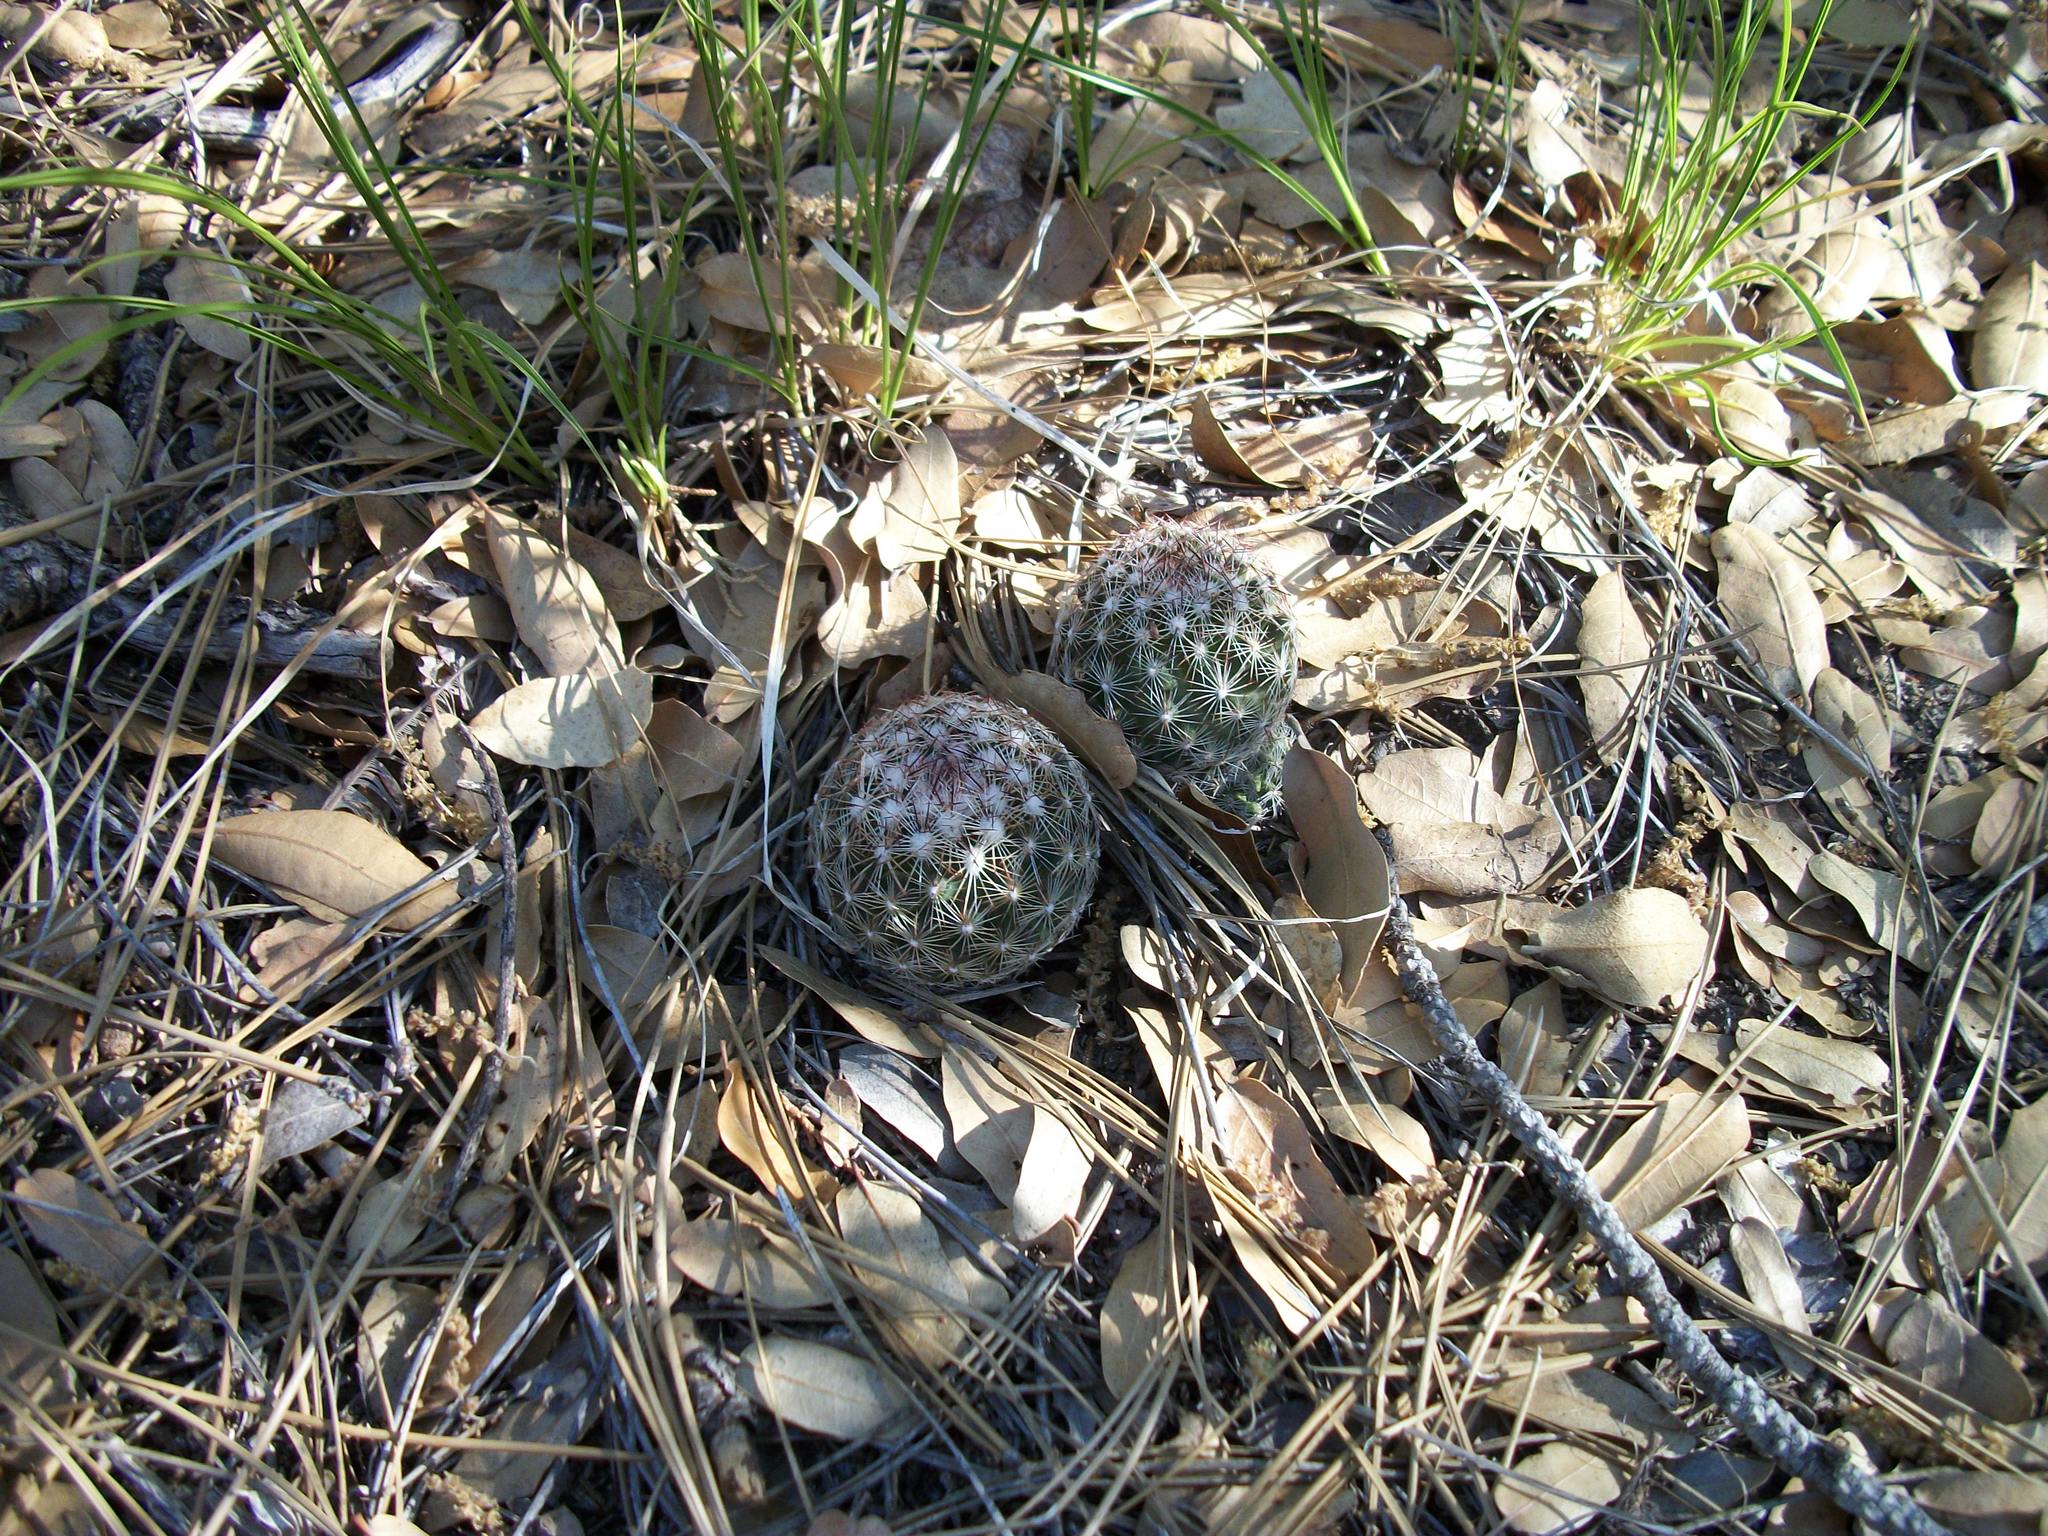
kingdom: Plantae
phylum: Tracheophyta
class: Magnoliopsida
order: Caryophyllales
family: Cactaceae
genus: Pelecyphora
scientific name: Pelecyphora vivipara
